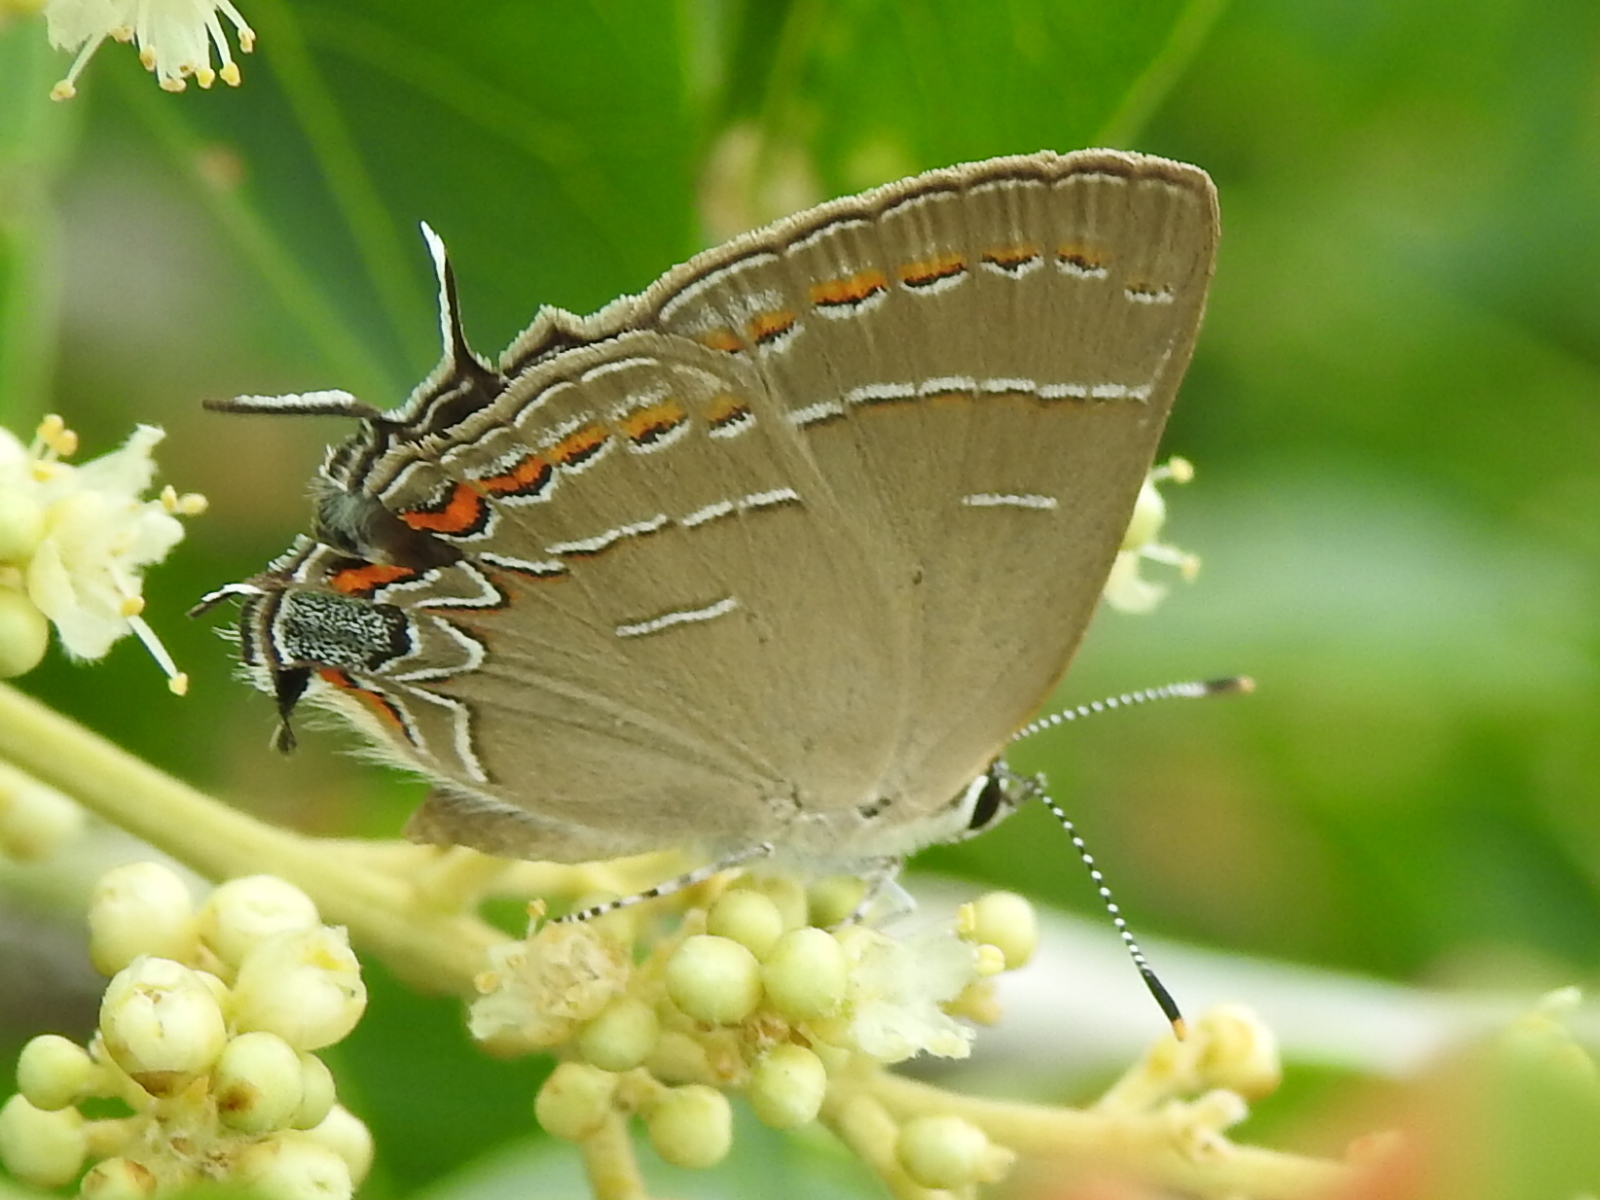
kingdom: Animalia
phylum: Arthropoda
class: Insecta
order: Lepidoptera
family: Lycaenidae
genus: Phaeostrymon
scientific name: Phaeostrymon alcestis
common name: Soapberry hairstreak
